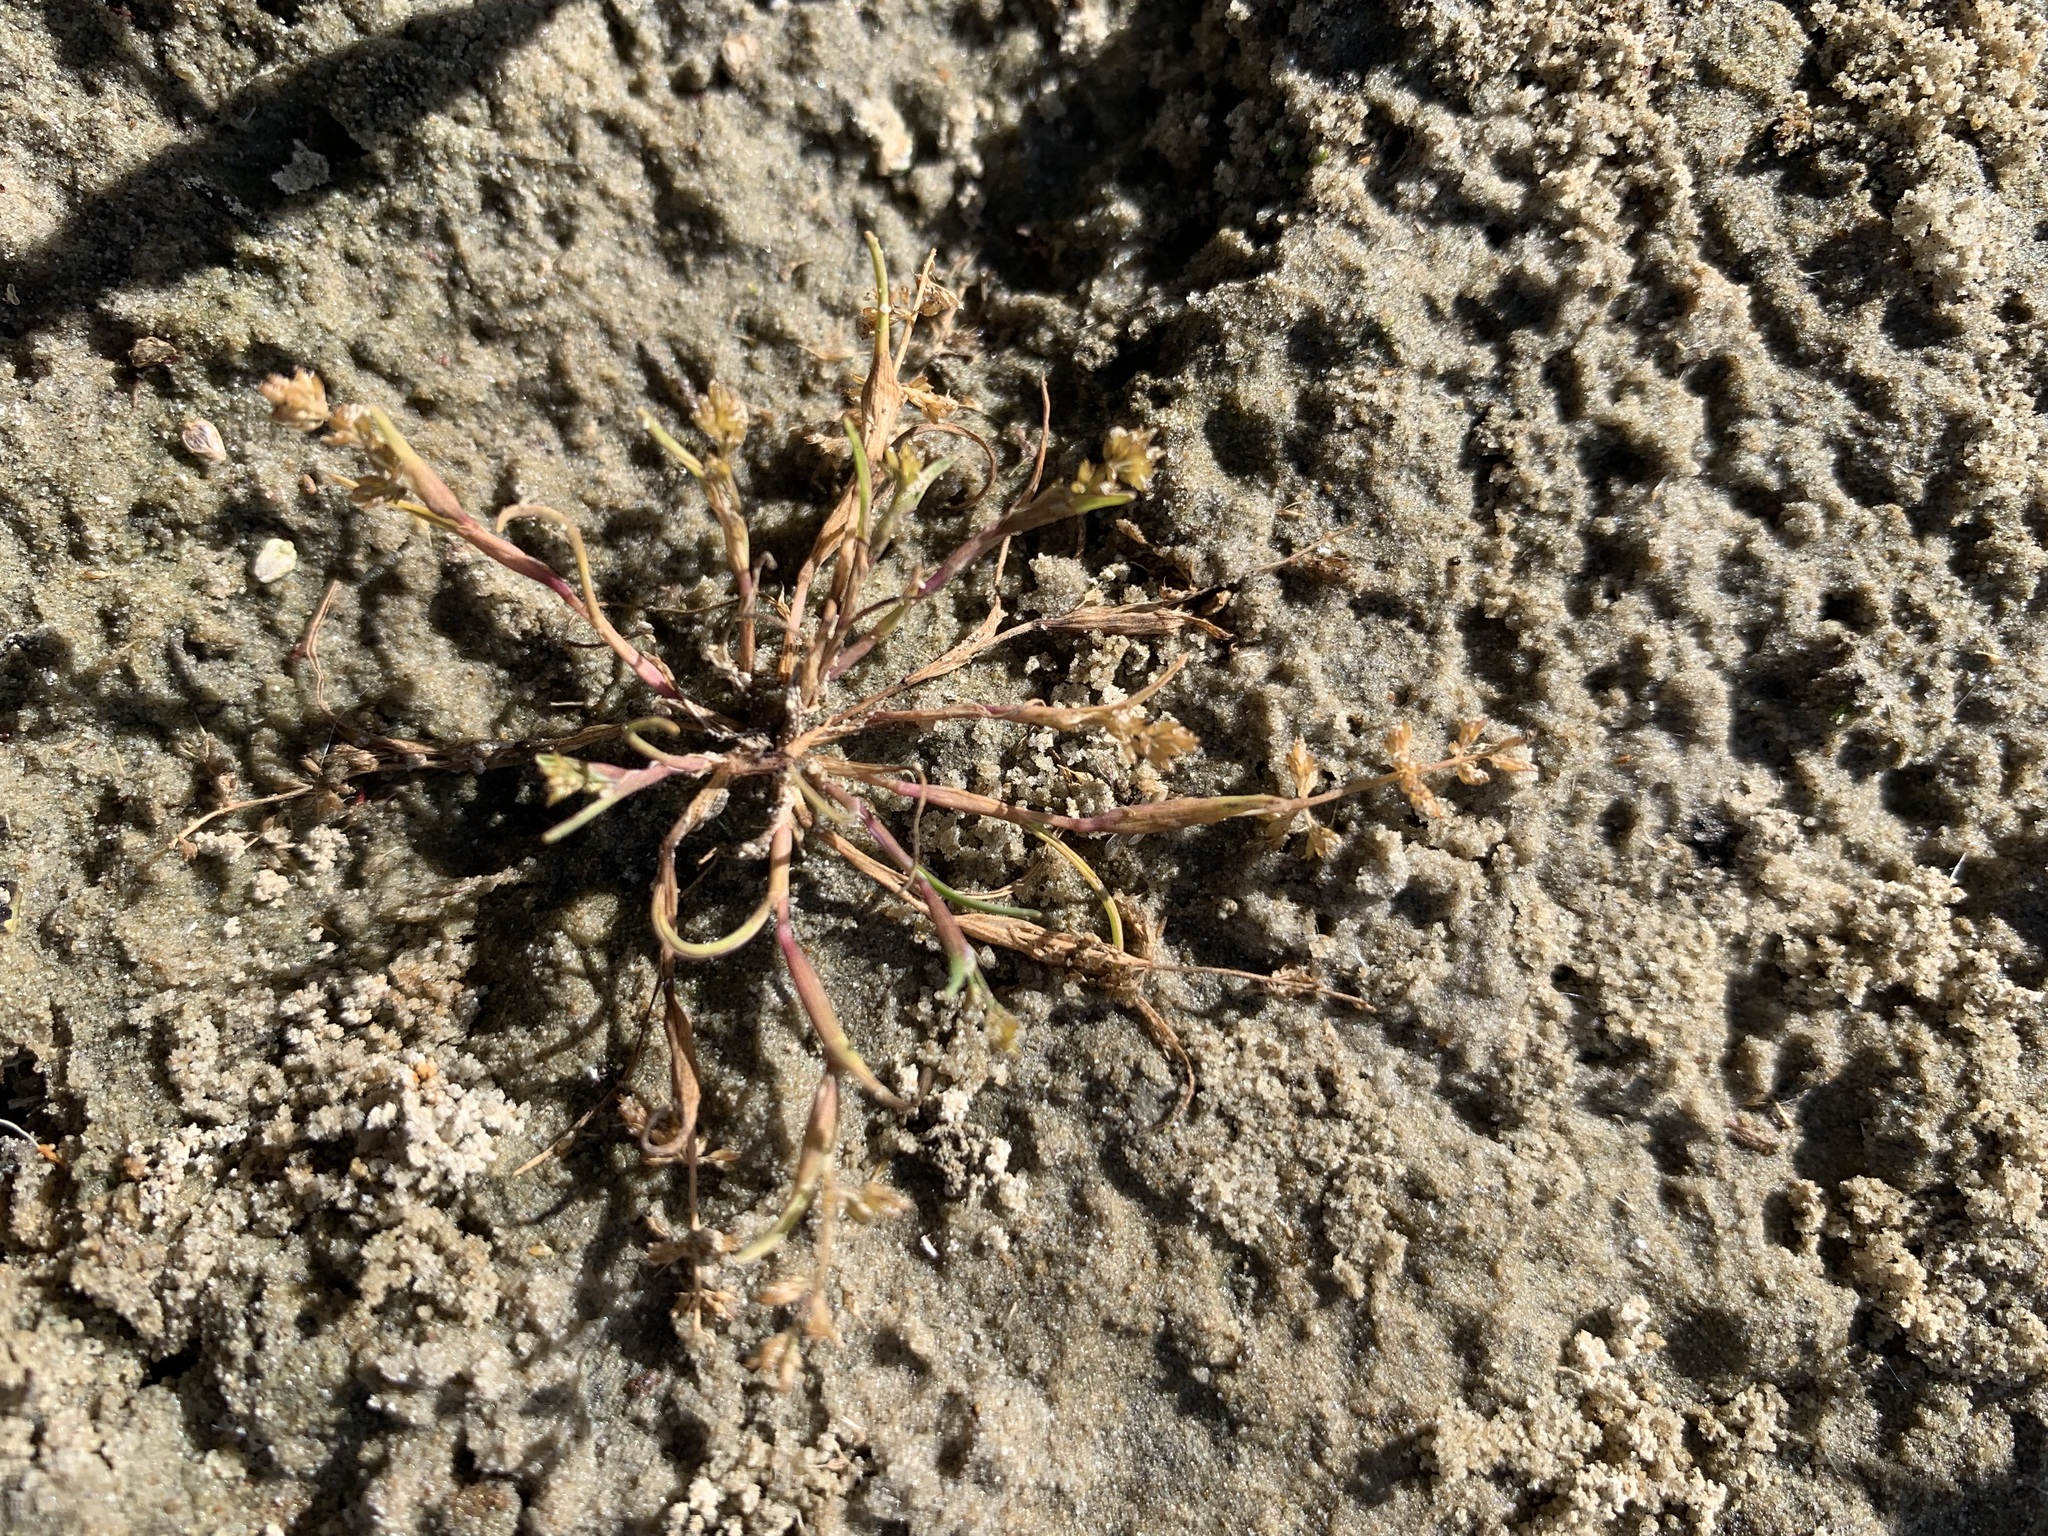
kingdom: Plantae
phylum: Tracheophyta
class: Liliopsida
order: Poales
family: Poaceae
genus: Coleanthus
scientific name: Coleanthus subtilis
